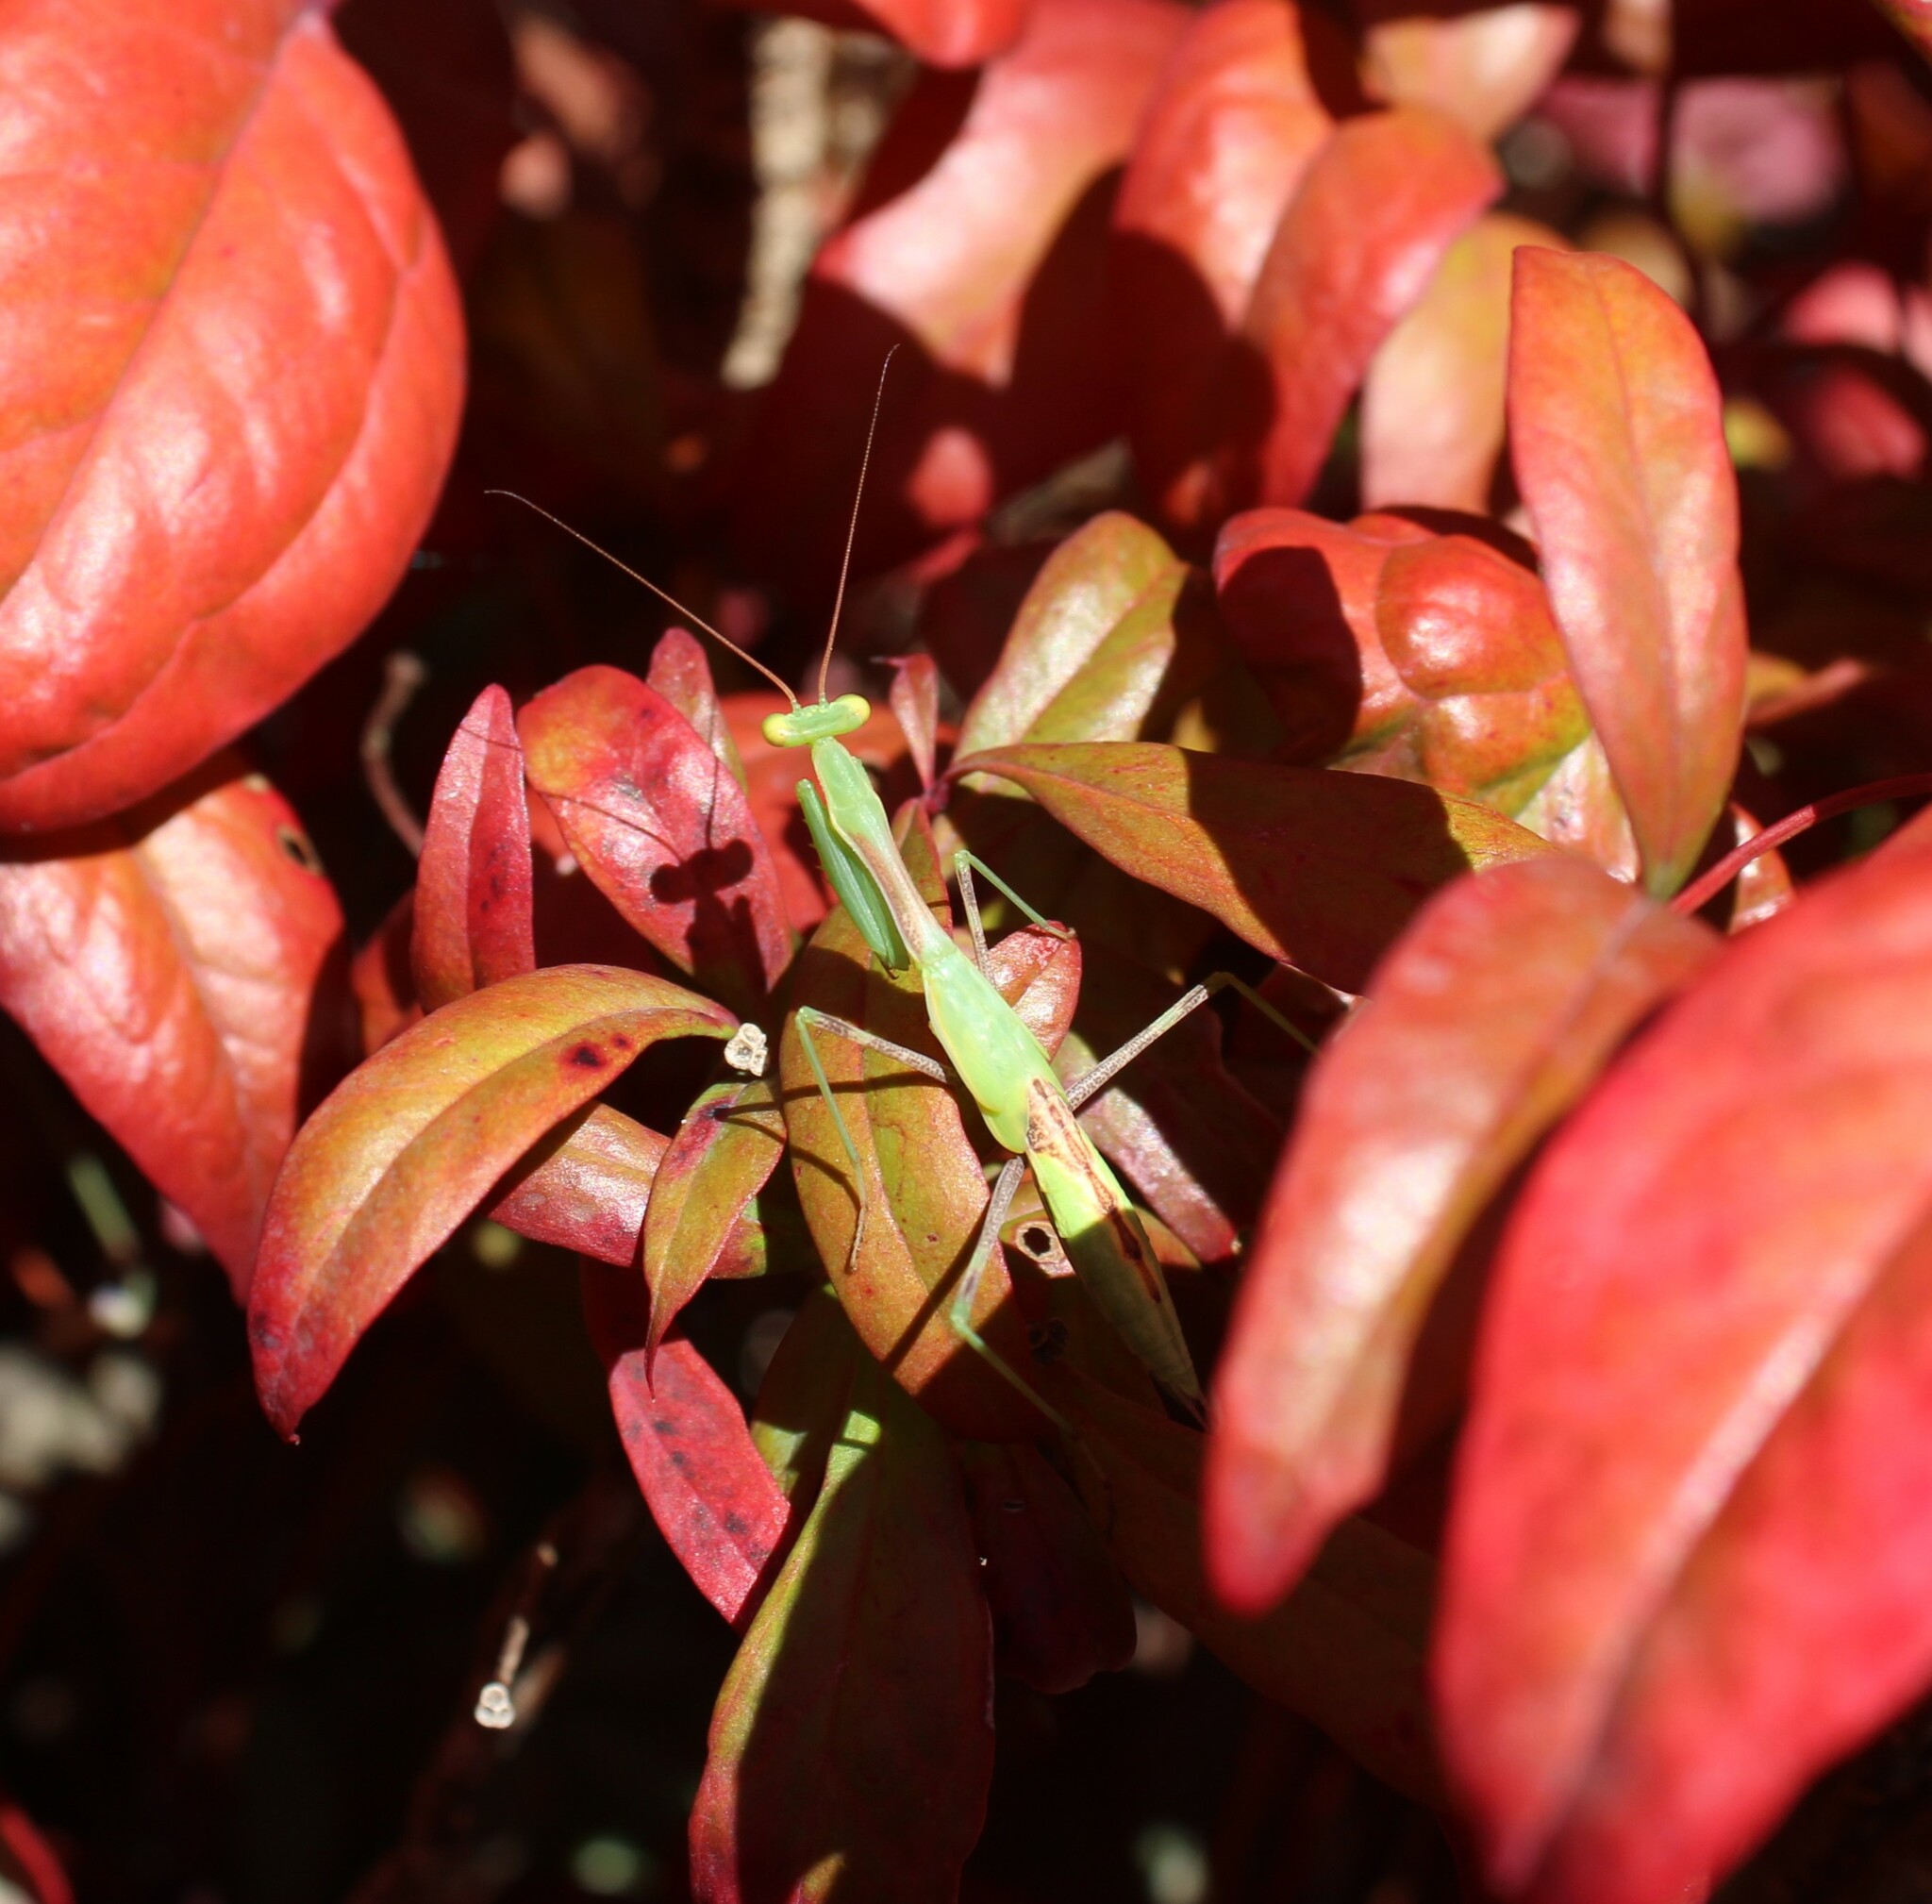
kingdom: Animalia
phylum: Arthropoda
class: Insecta
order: Mantodea
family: Miomantidae
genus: Miomantis
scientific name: Miomantis caffra
